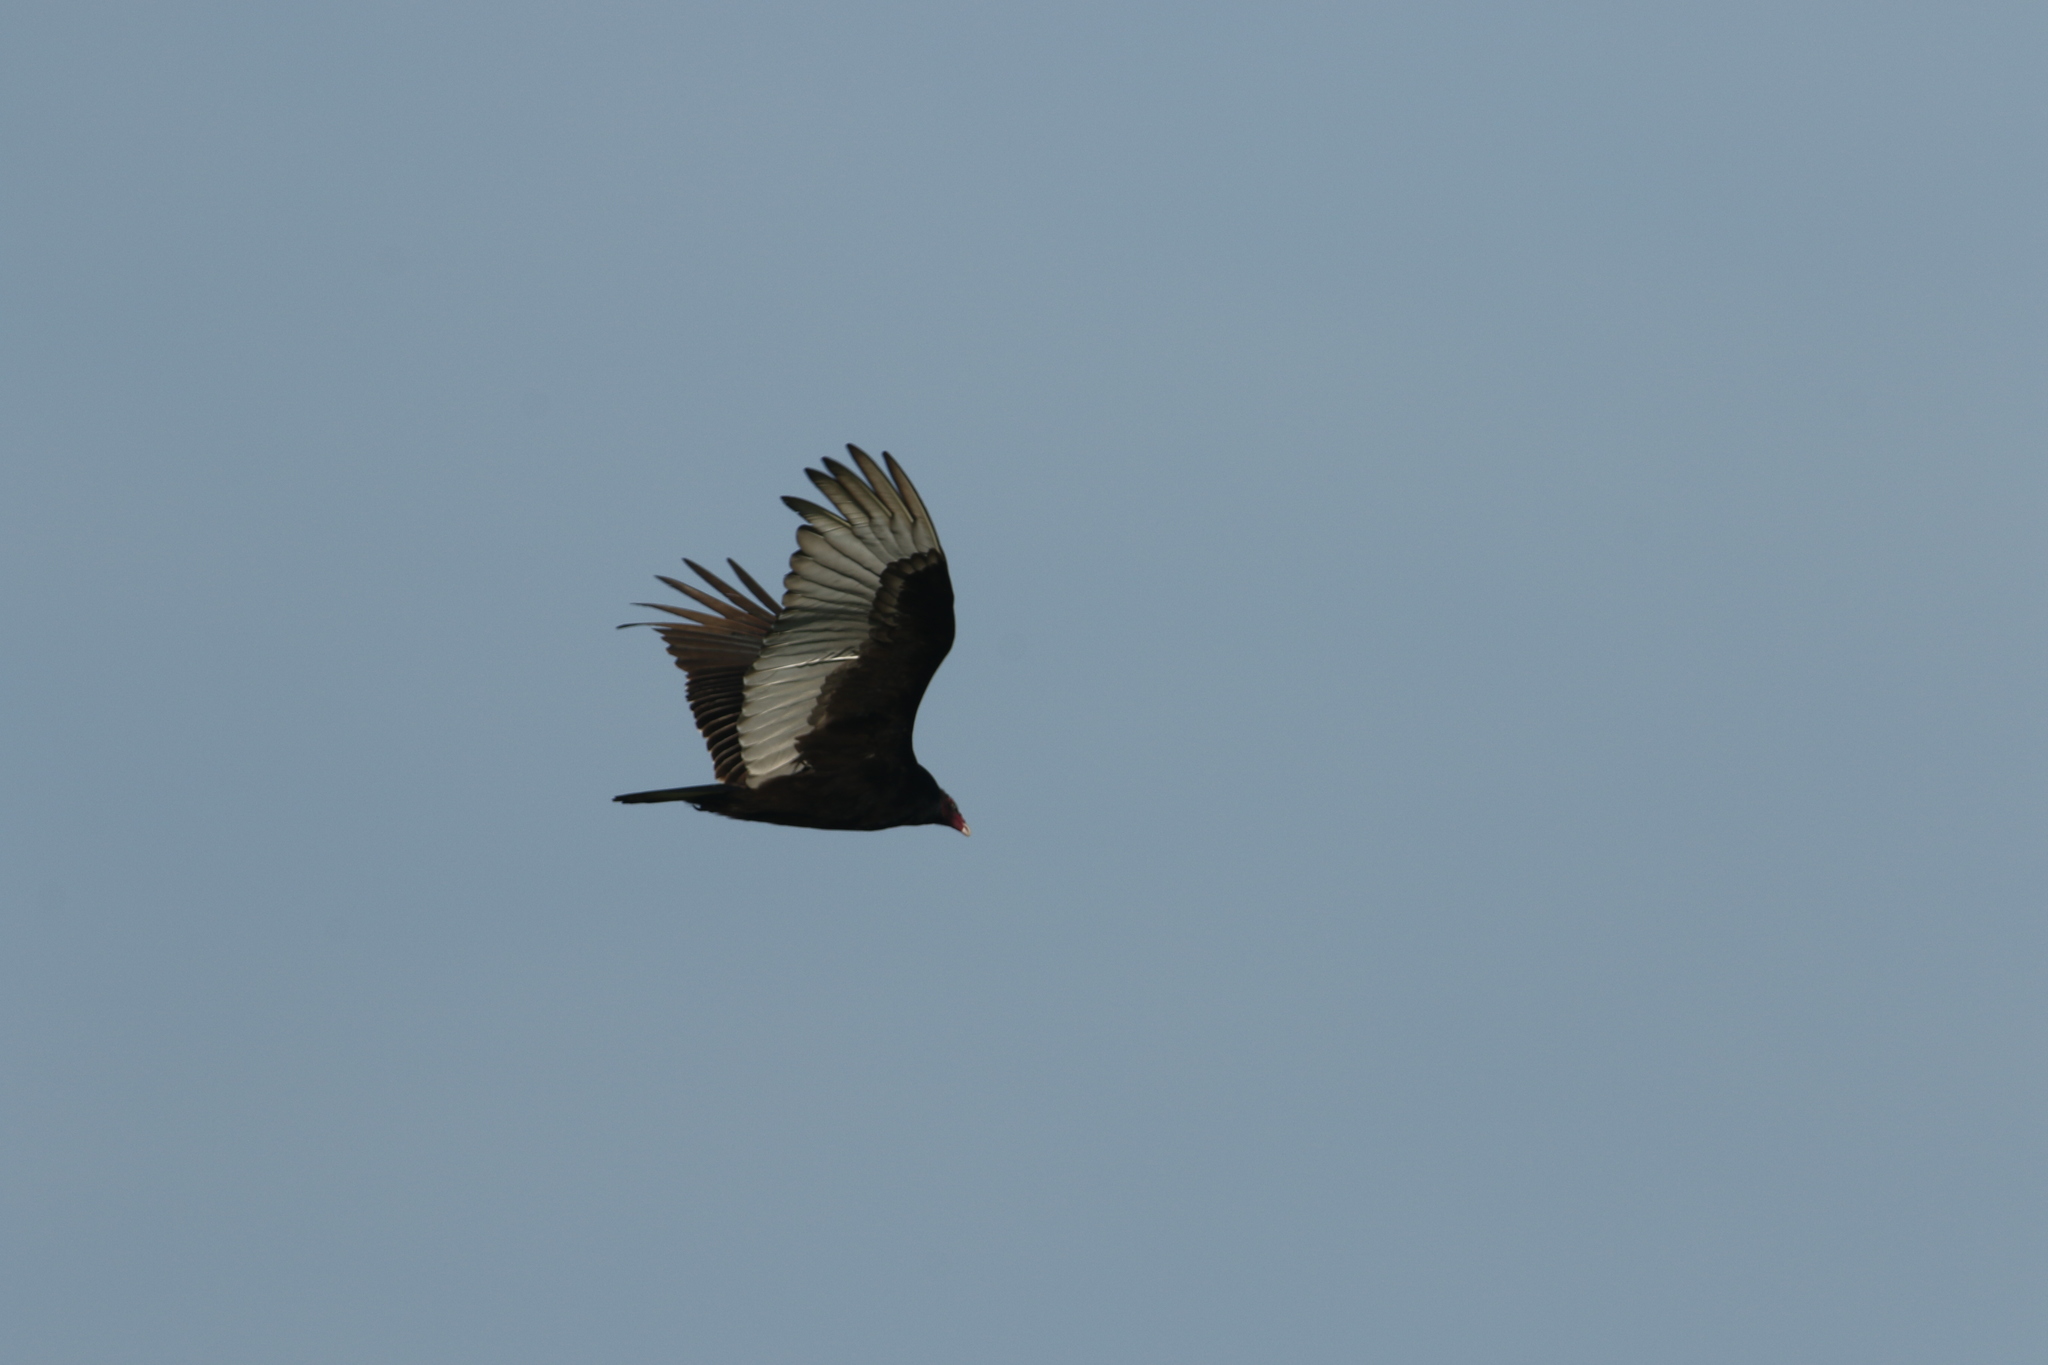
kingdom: Animalia
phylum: Chordata
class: Aves
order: Accipitriformes
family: Cathartidae
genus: Cathartes
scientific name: Cathartes aura
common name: Turkey vulture
